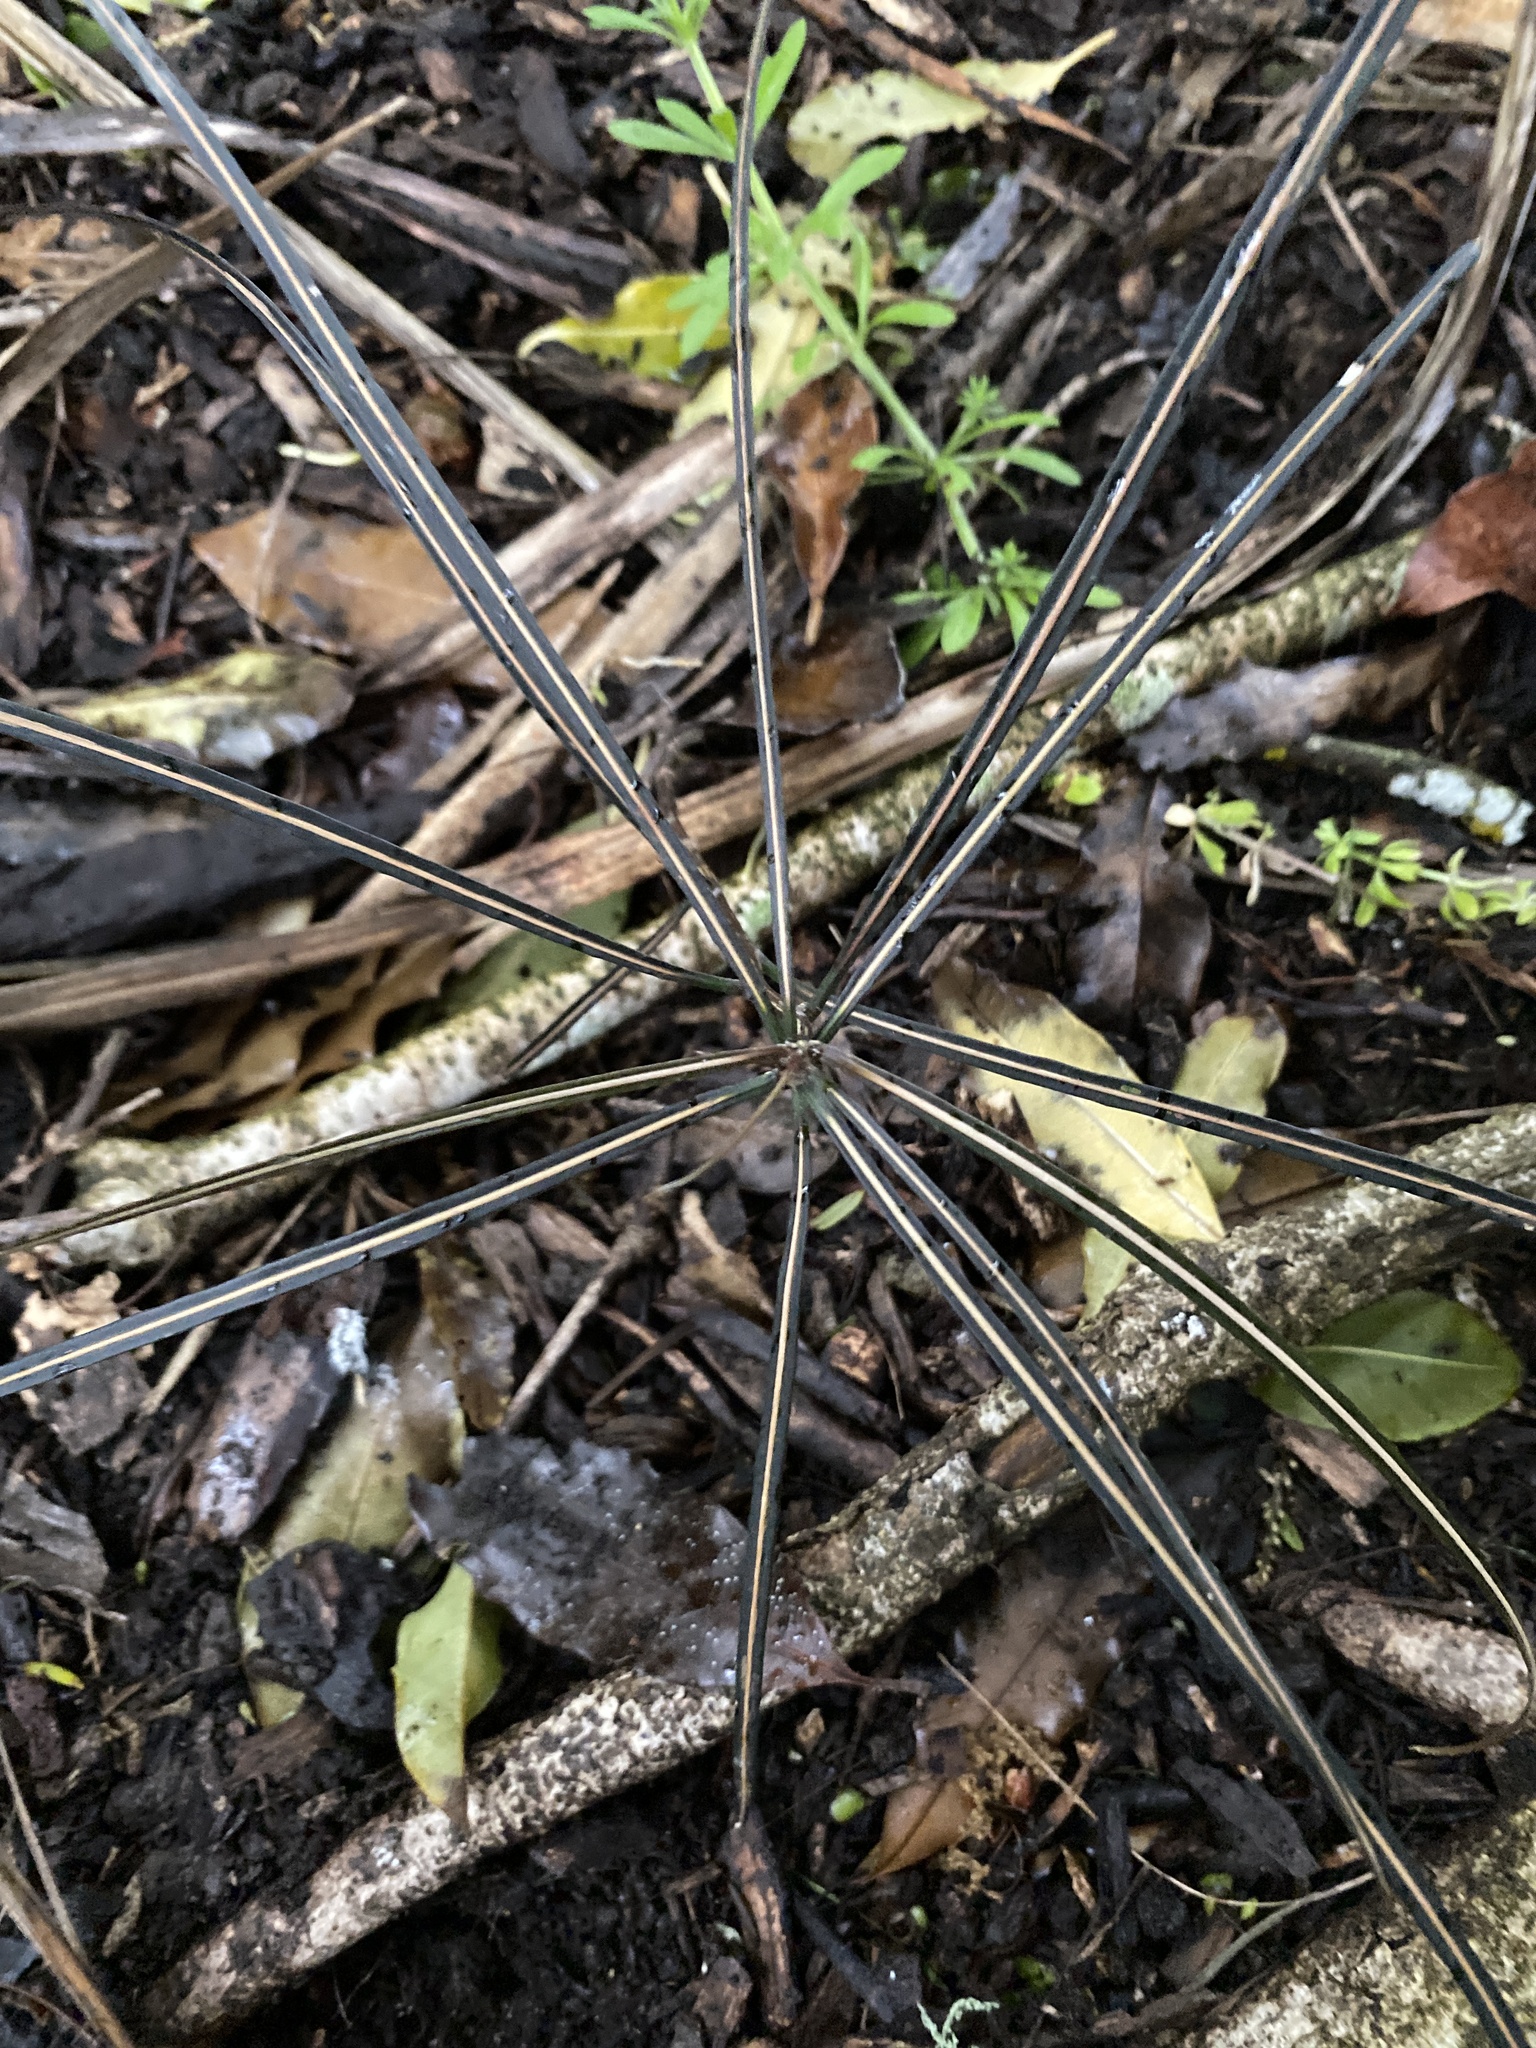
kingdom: Plantae
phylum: Tracheophyta
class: Magnoliopsida
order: Apiales
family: Araliaceae
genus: Pseudopanax
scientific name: Pseudopanax crassifolius
